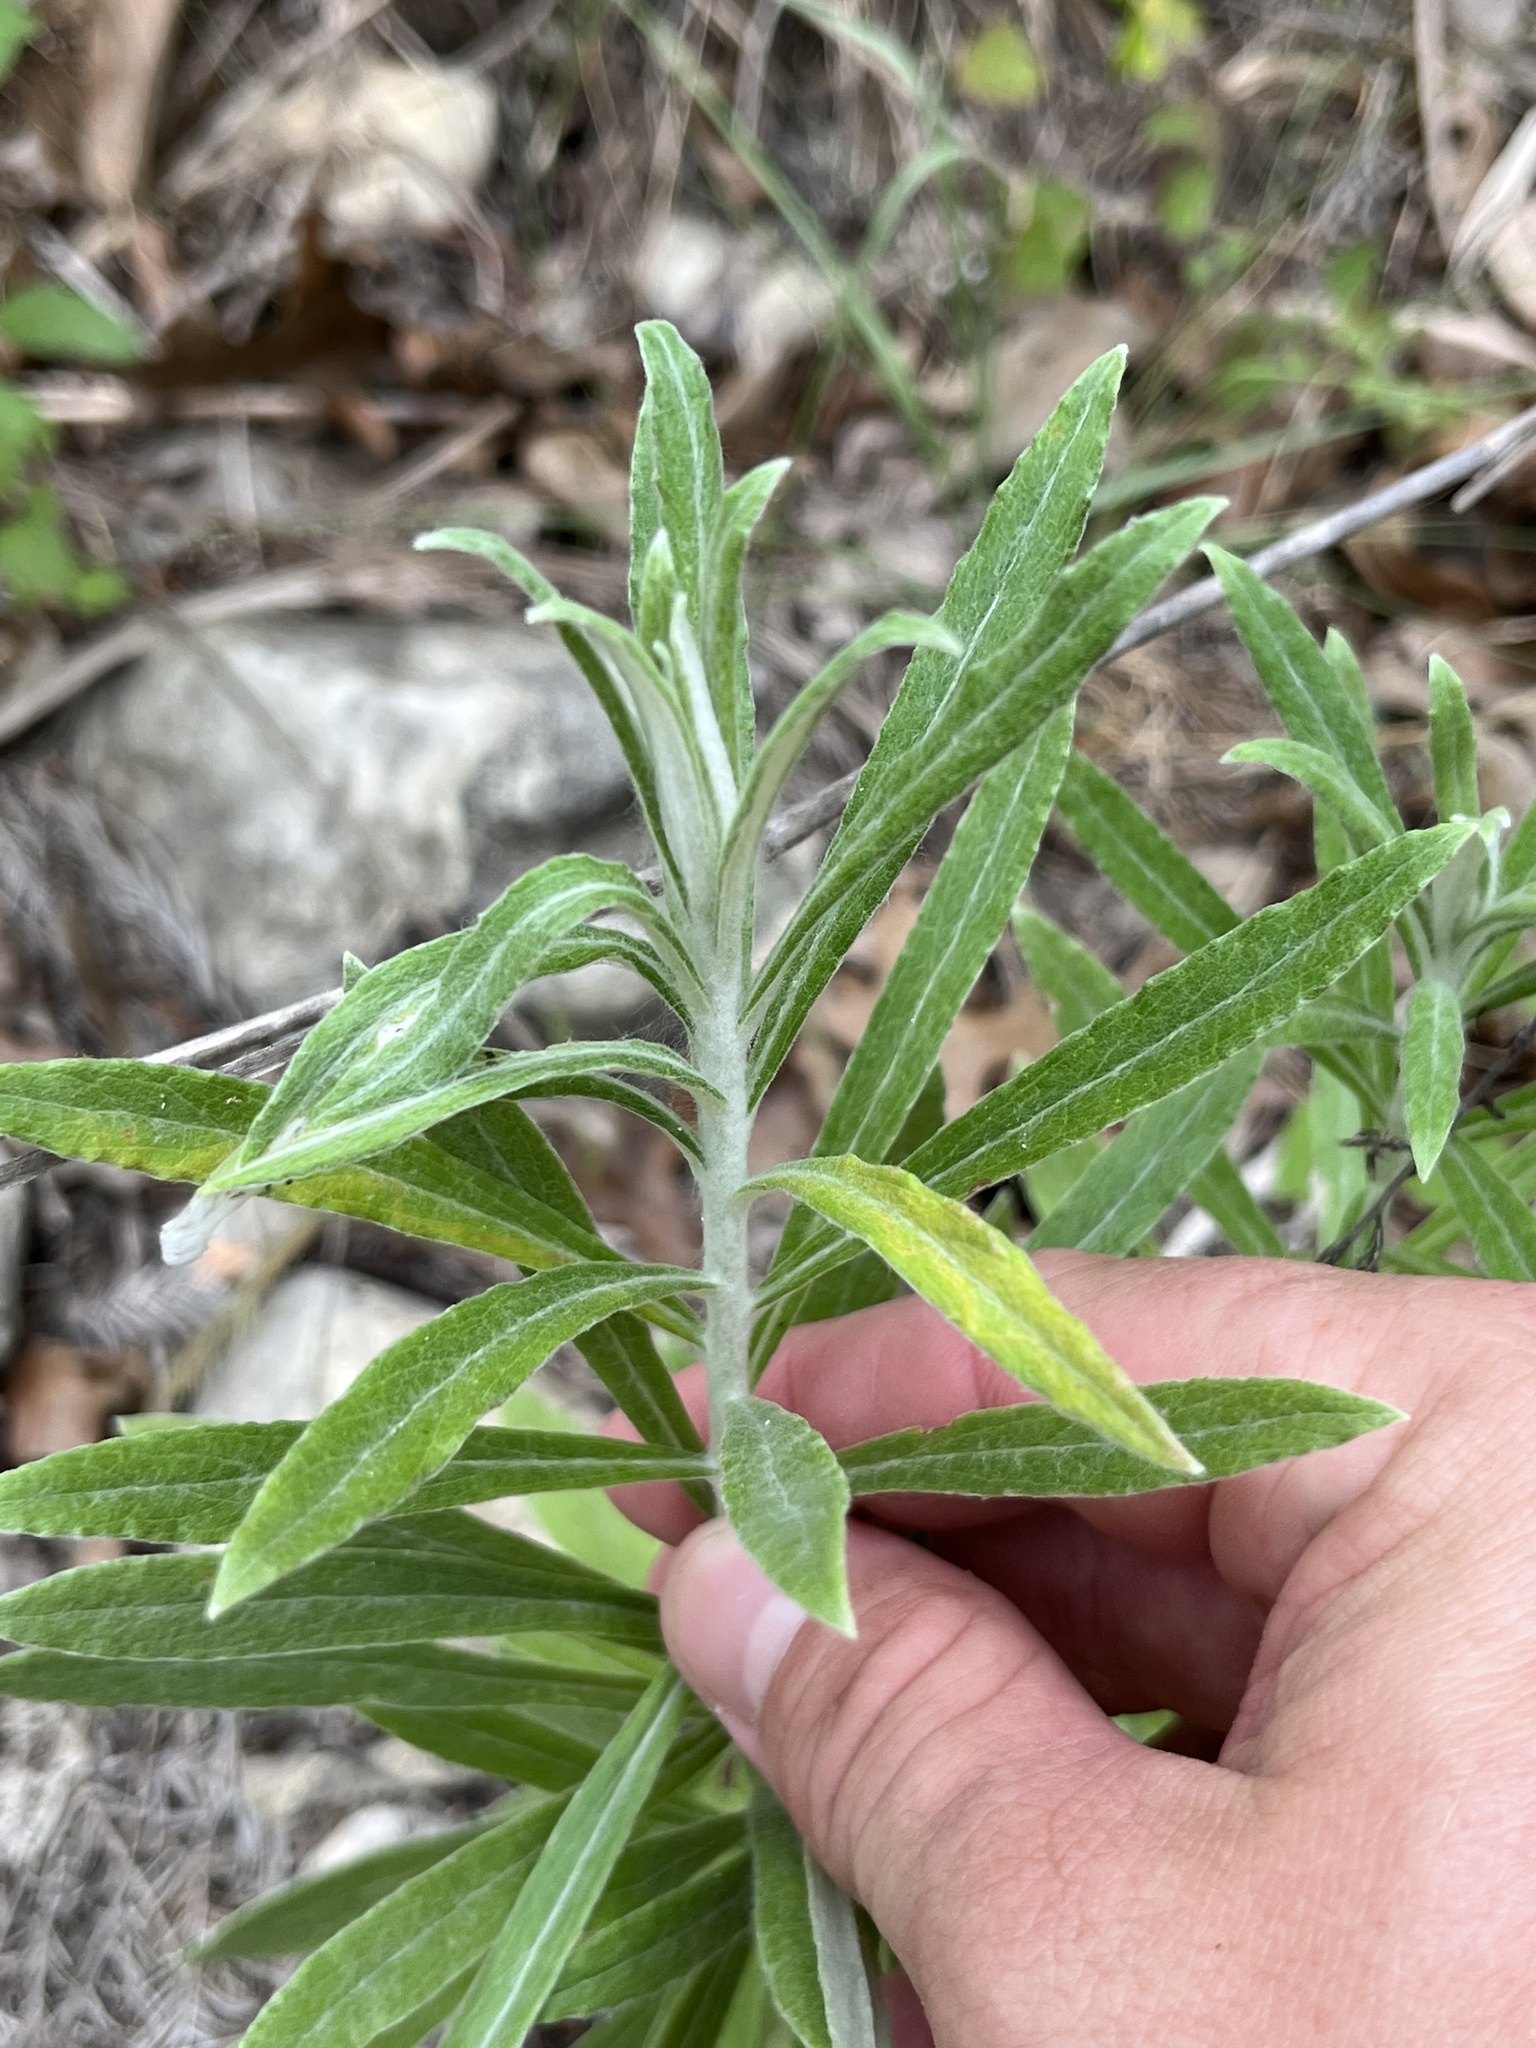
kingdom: Plantae
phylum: Tracheophyta
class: Magnoliopsida
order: Asterales
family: Asteraceae
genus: Pseudognaphalium
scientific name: Pseudognaphalium obtusifolium
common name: Eastern rabbit-tobacco
